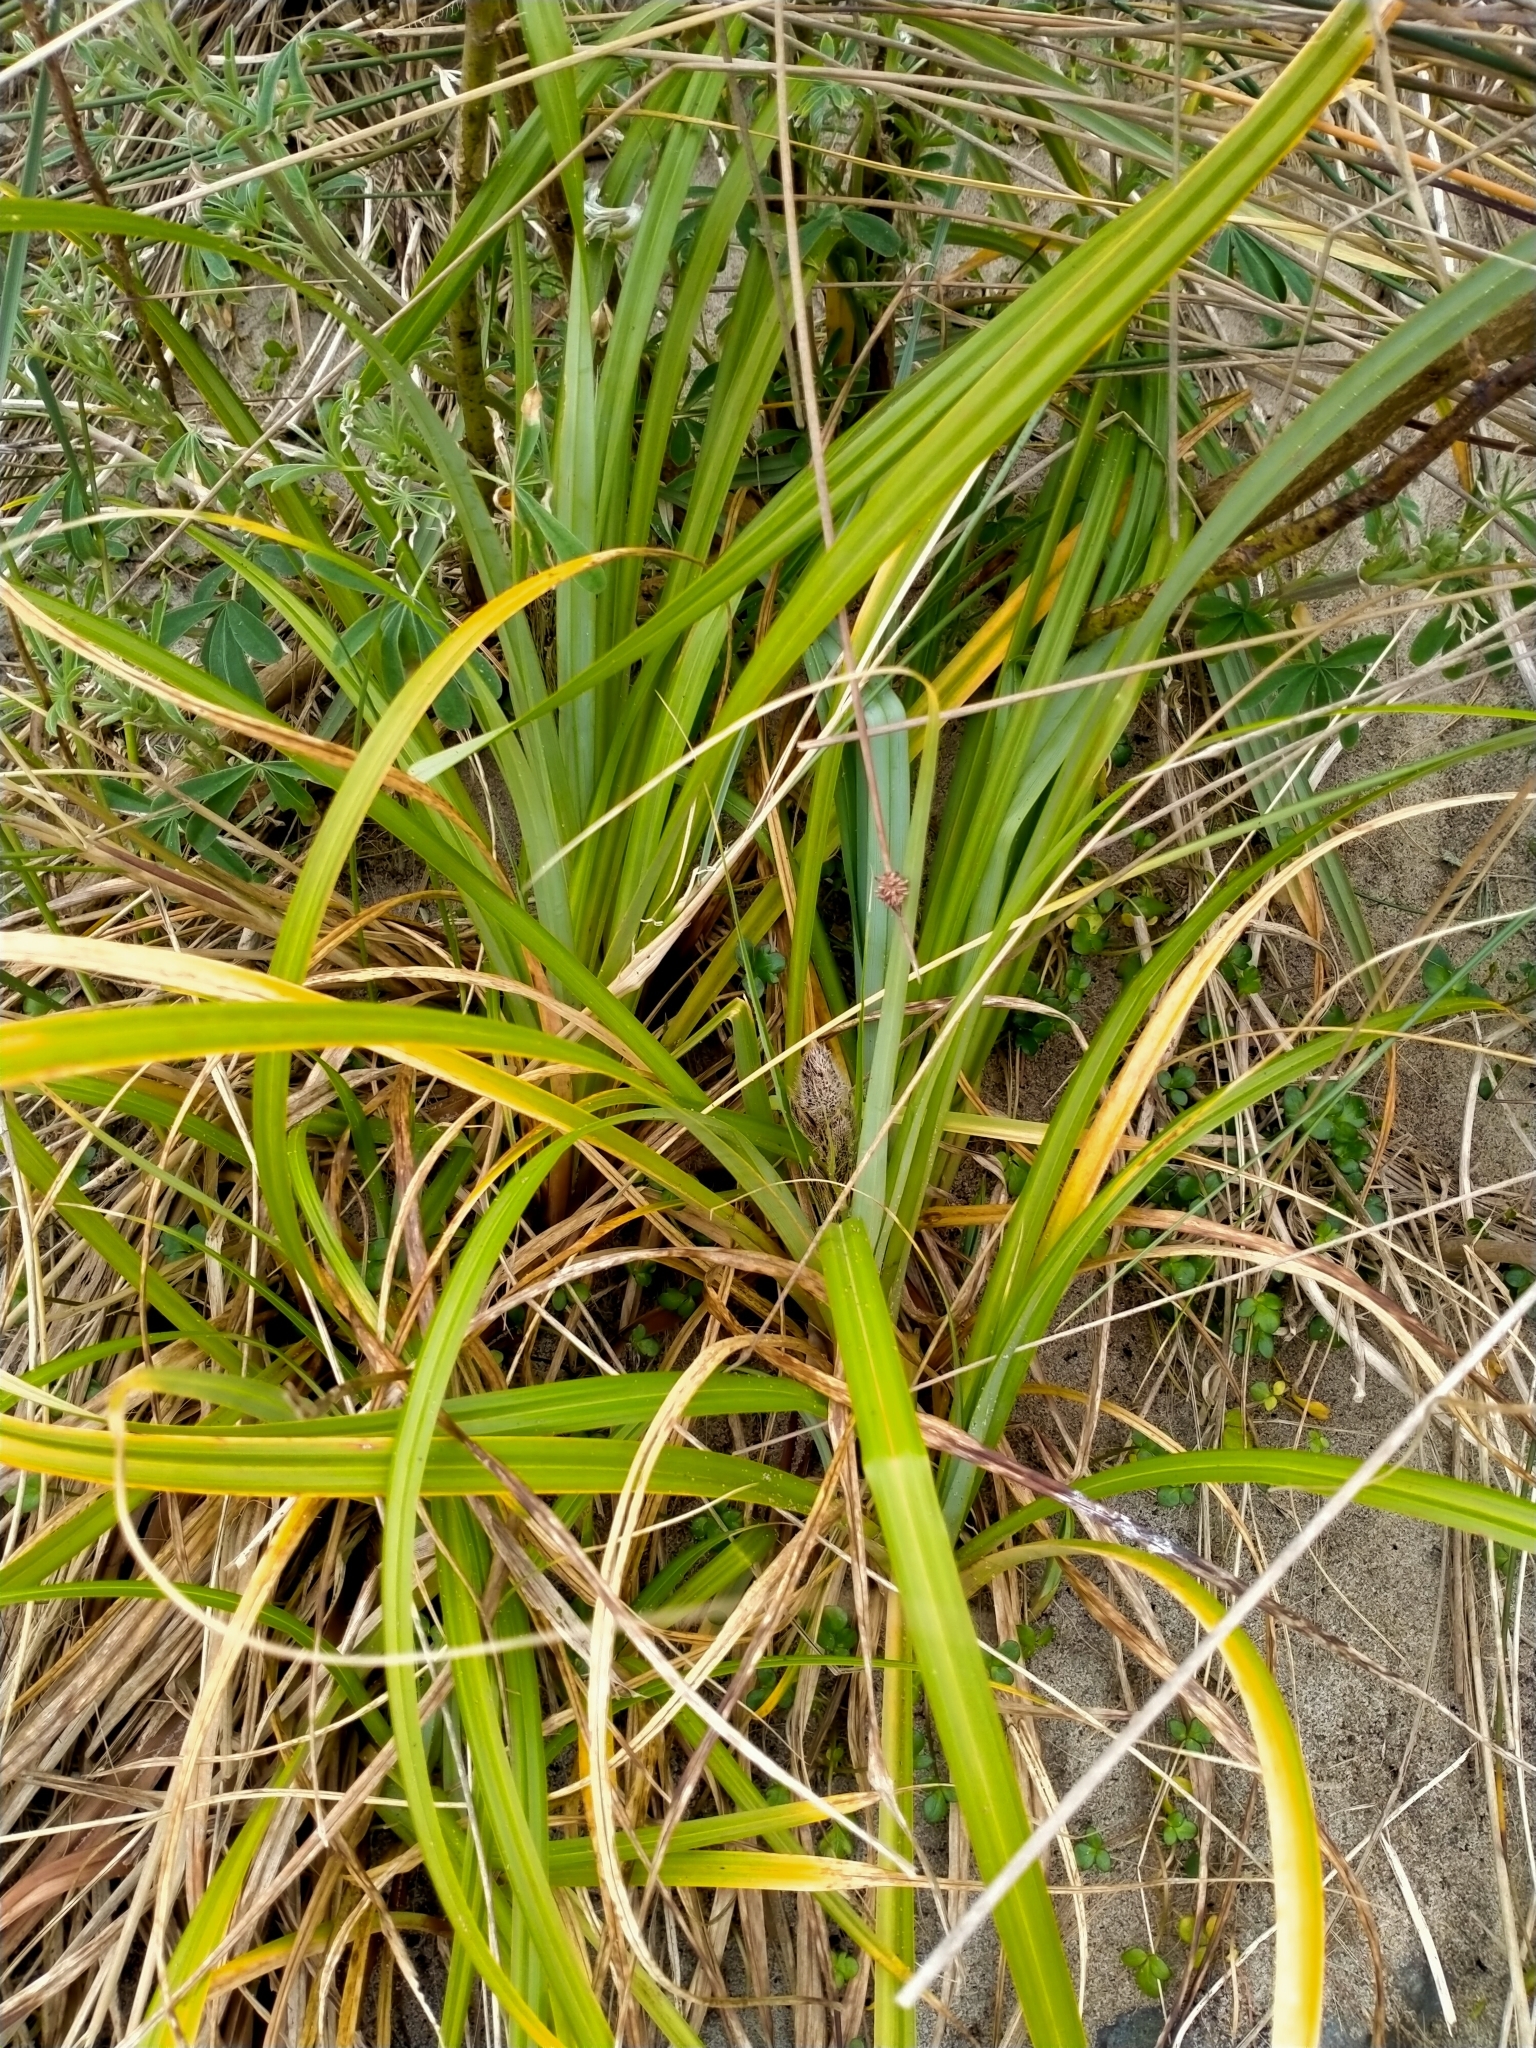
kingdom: Plantae
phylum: Tracheophyta
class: Liliopsida
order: Poales
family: Cyperaceae
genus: Carex
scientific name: Carex trifida
